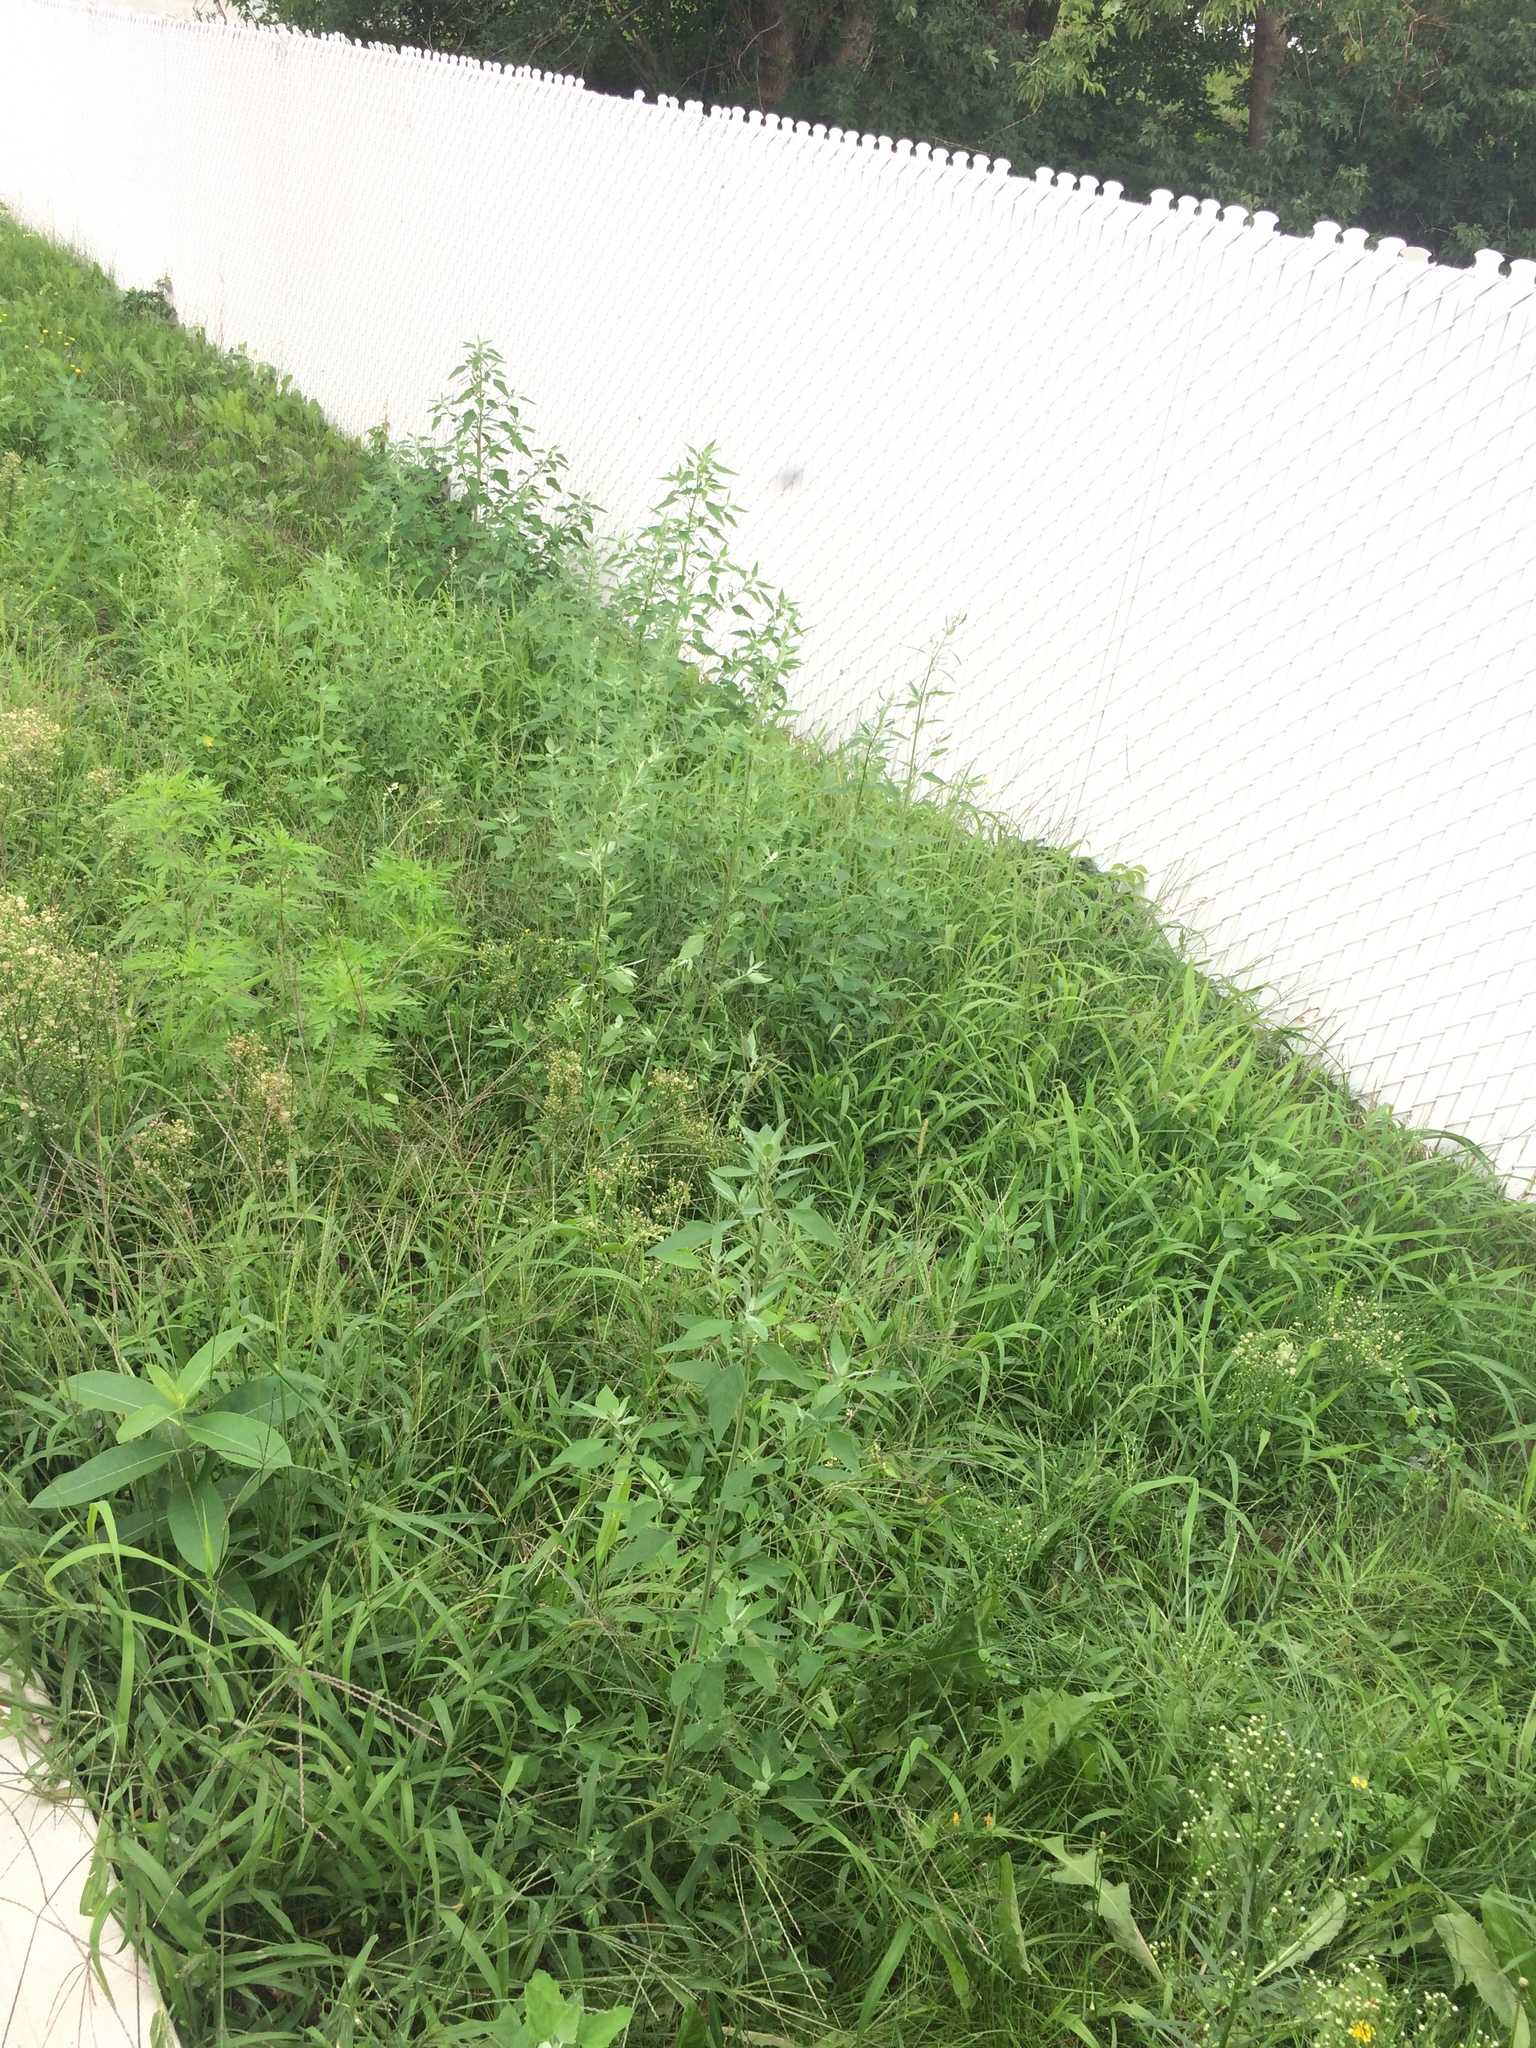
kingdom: Plantae
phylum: Tracheophyta
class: Magnoliopsida
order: Lamiales
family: Lamiaceae
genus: Galeopsis
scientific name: Galeopsis tetrahit
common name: Common hemp-nettle
